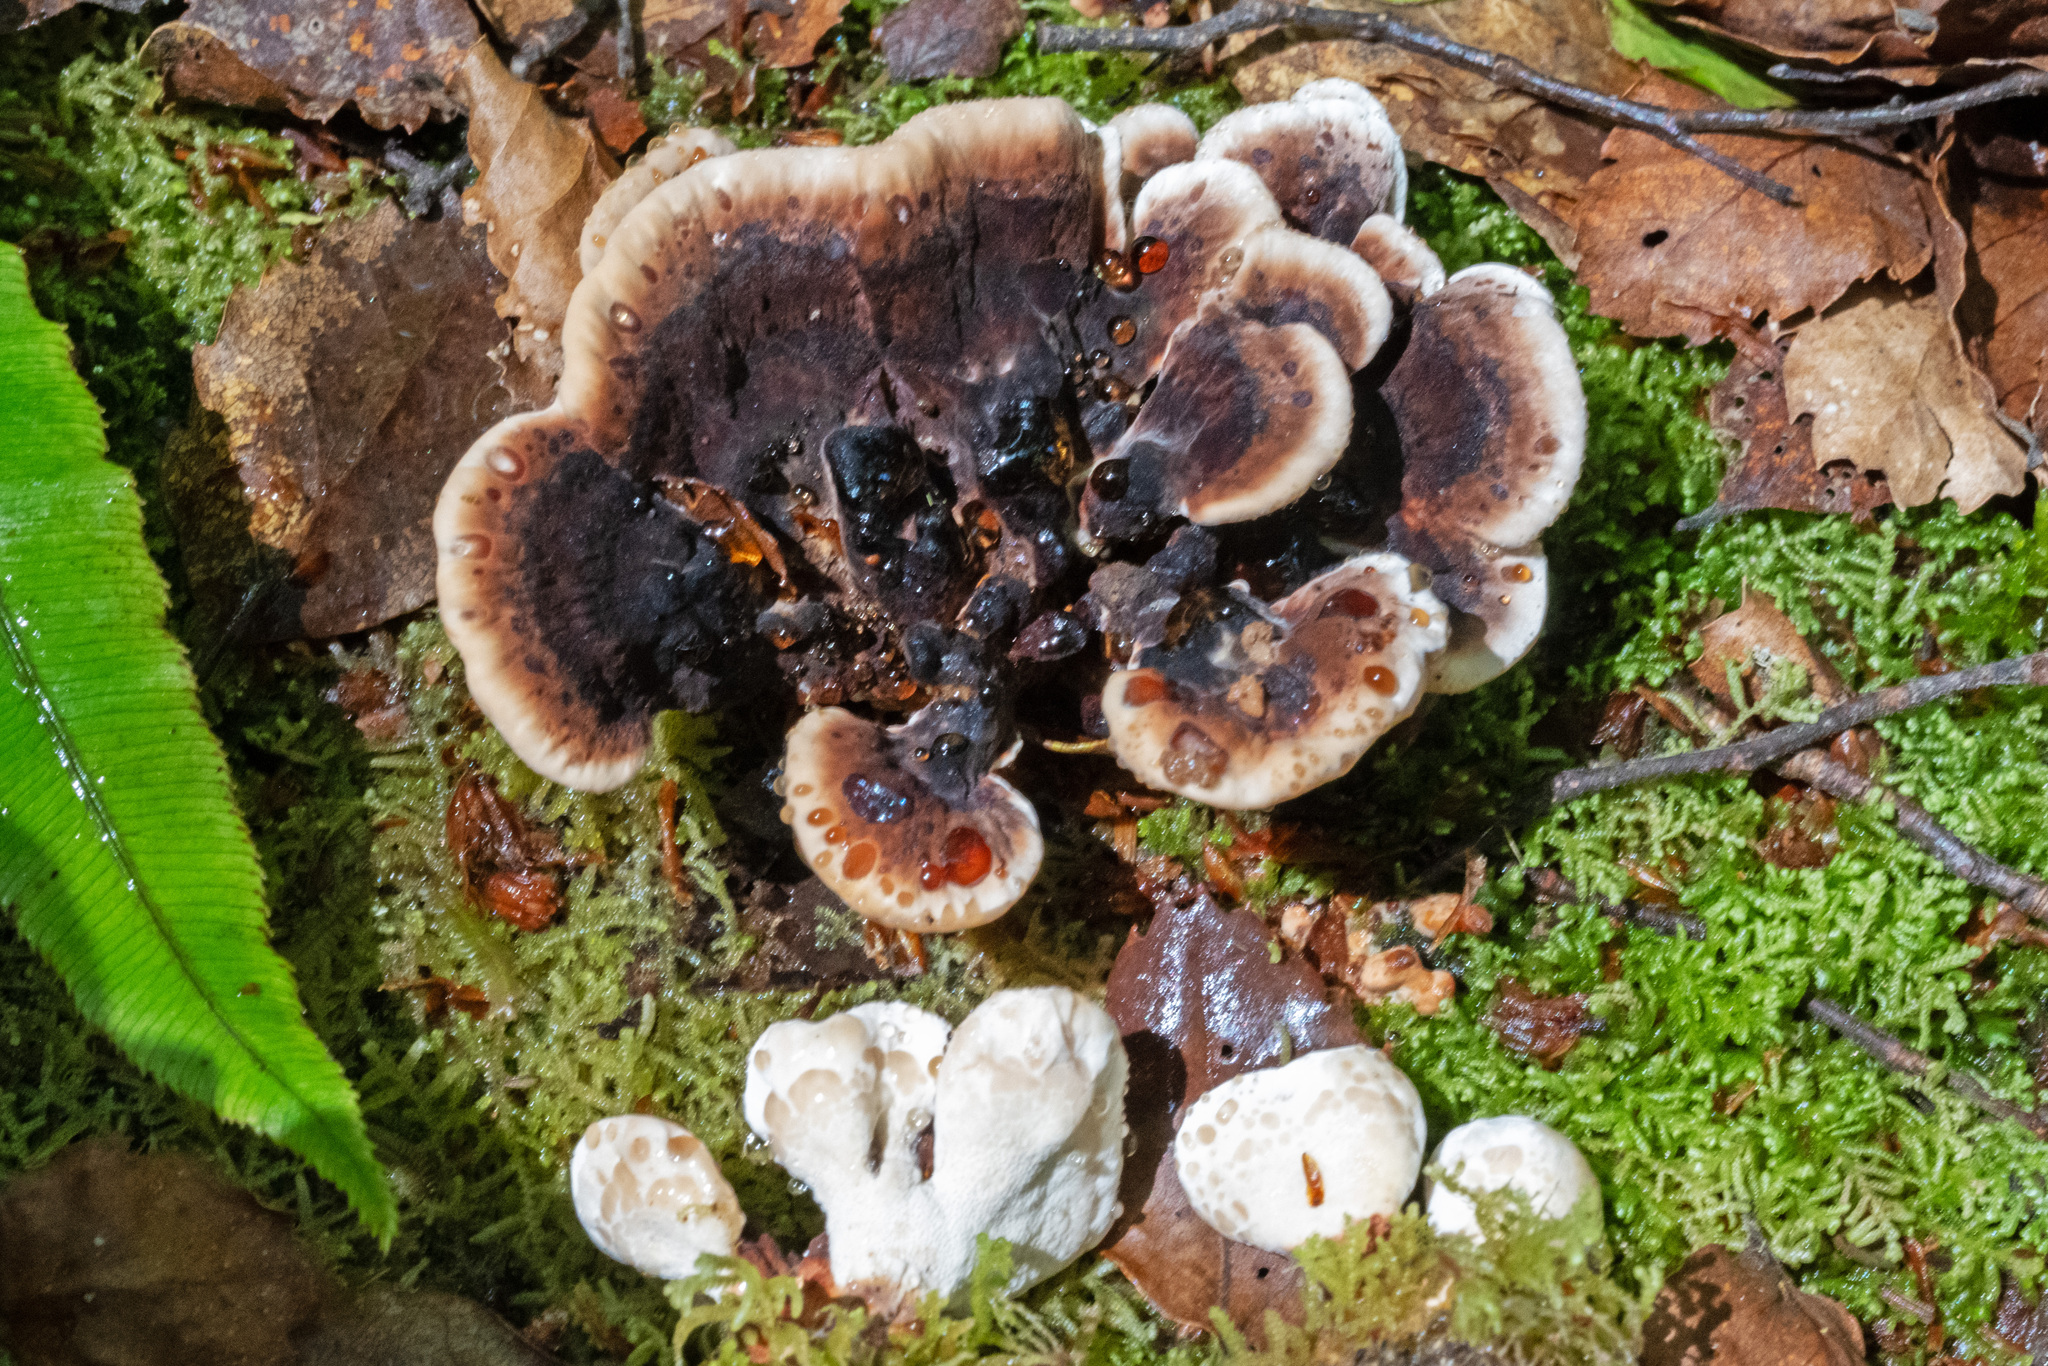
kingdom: Fungi
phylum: Basidiomycota
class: Agaricomycetes
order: Polyporales
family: Postiaceae
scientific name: Postiaceae
